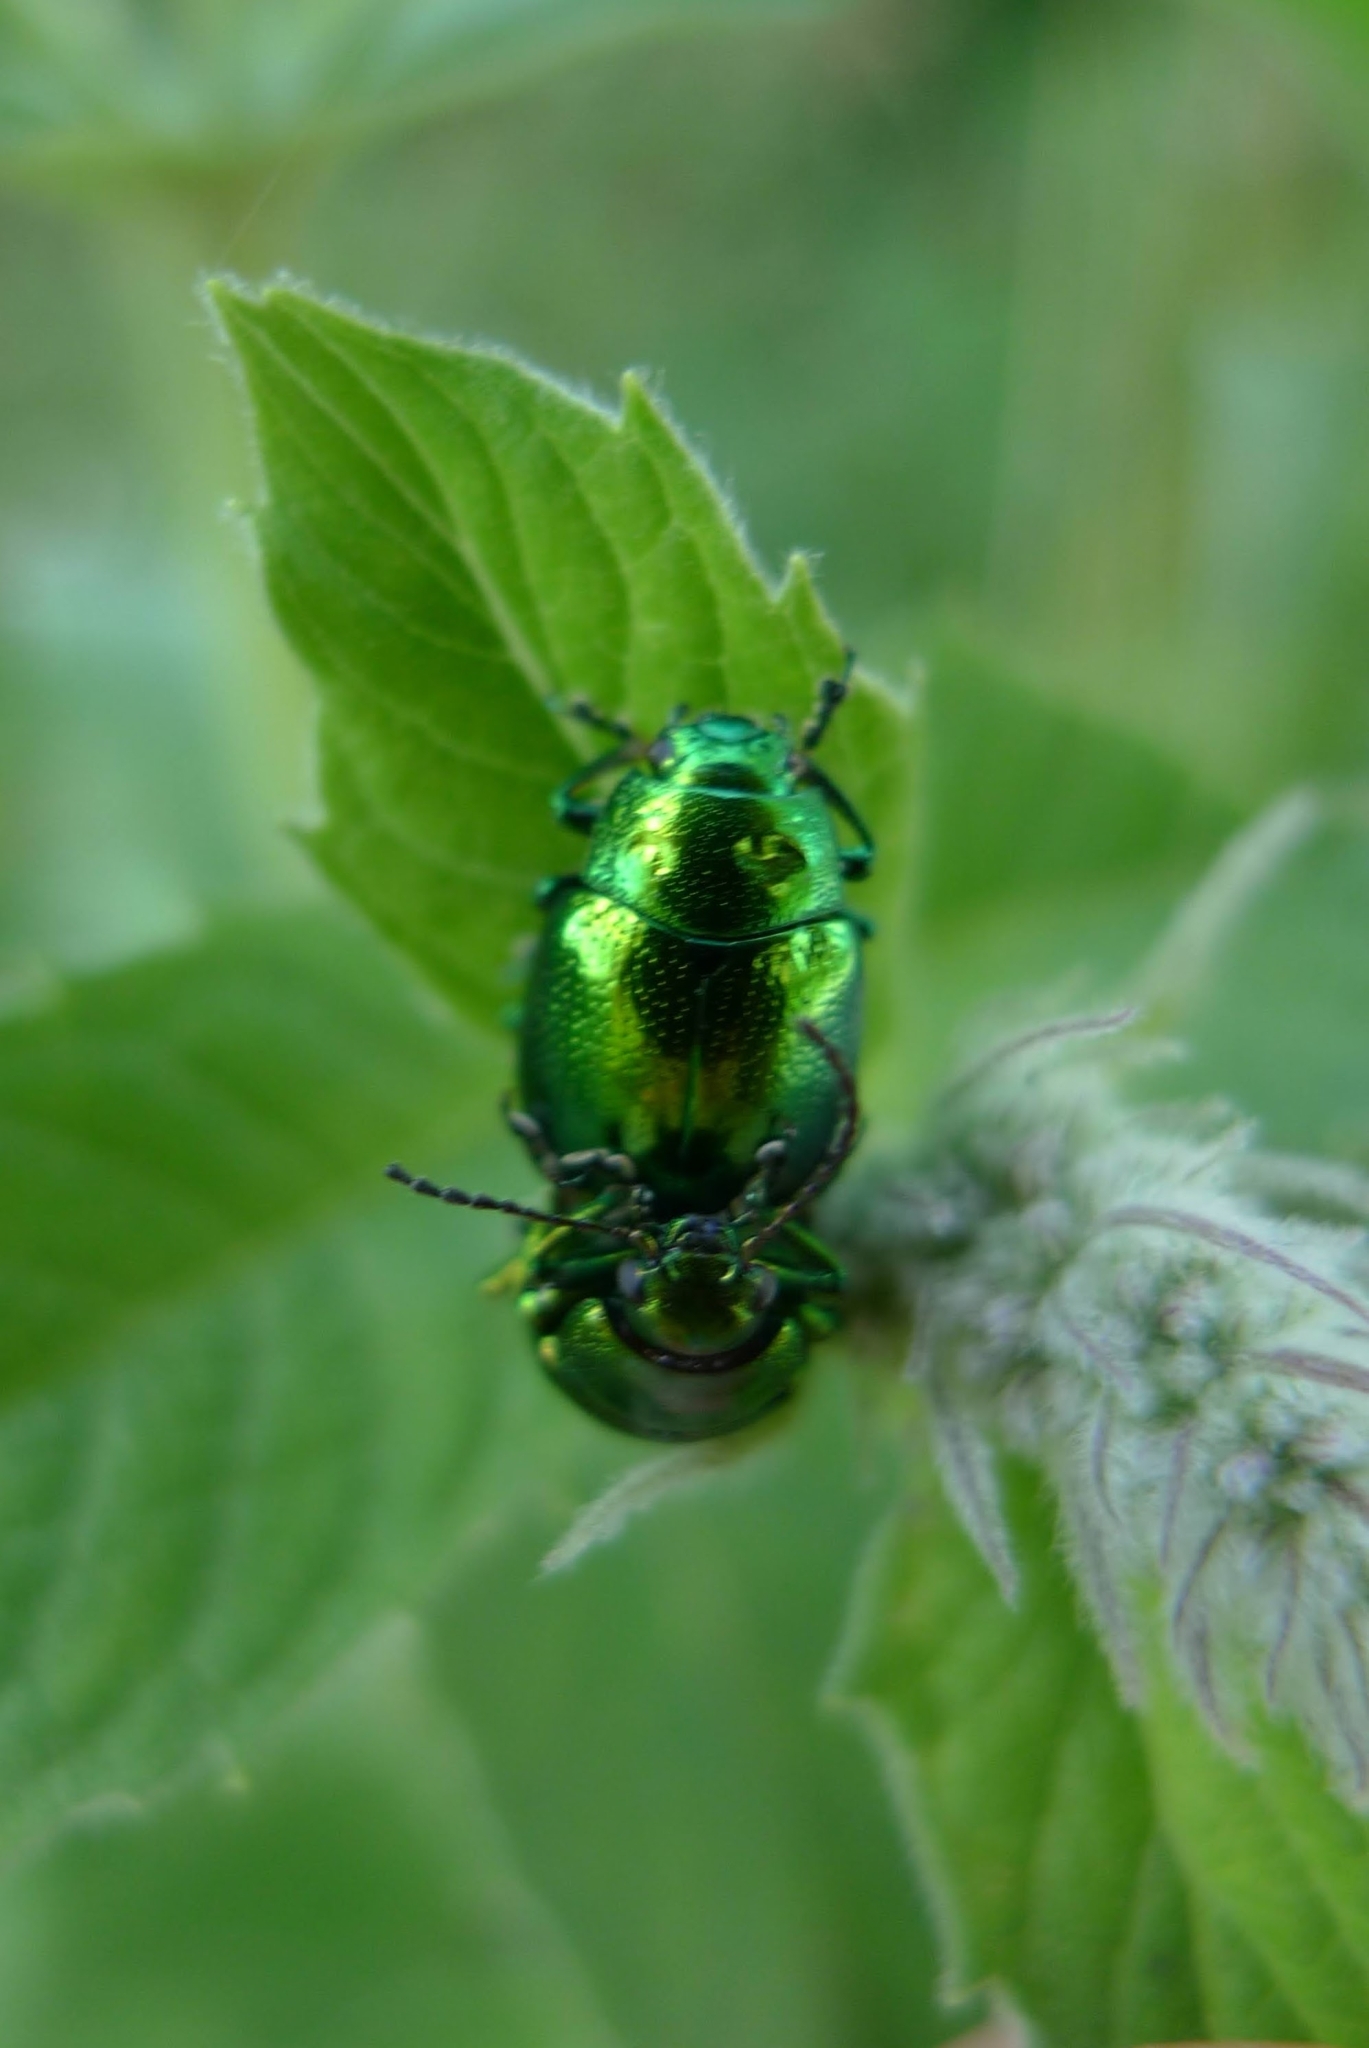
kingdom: Animalia
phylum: Arthropoda
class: Insecta
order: Coleoptera
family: Chrysomelidae
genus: Chrysolina
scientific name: Chrysolina herbacea
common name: Mint leaf beatle
